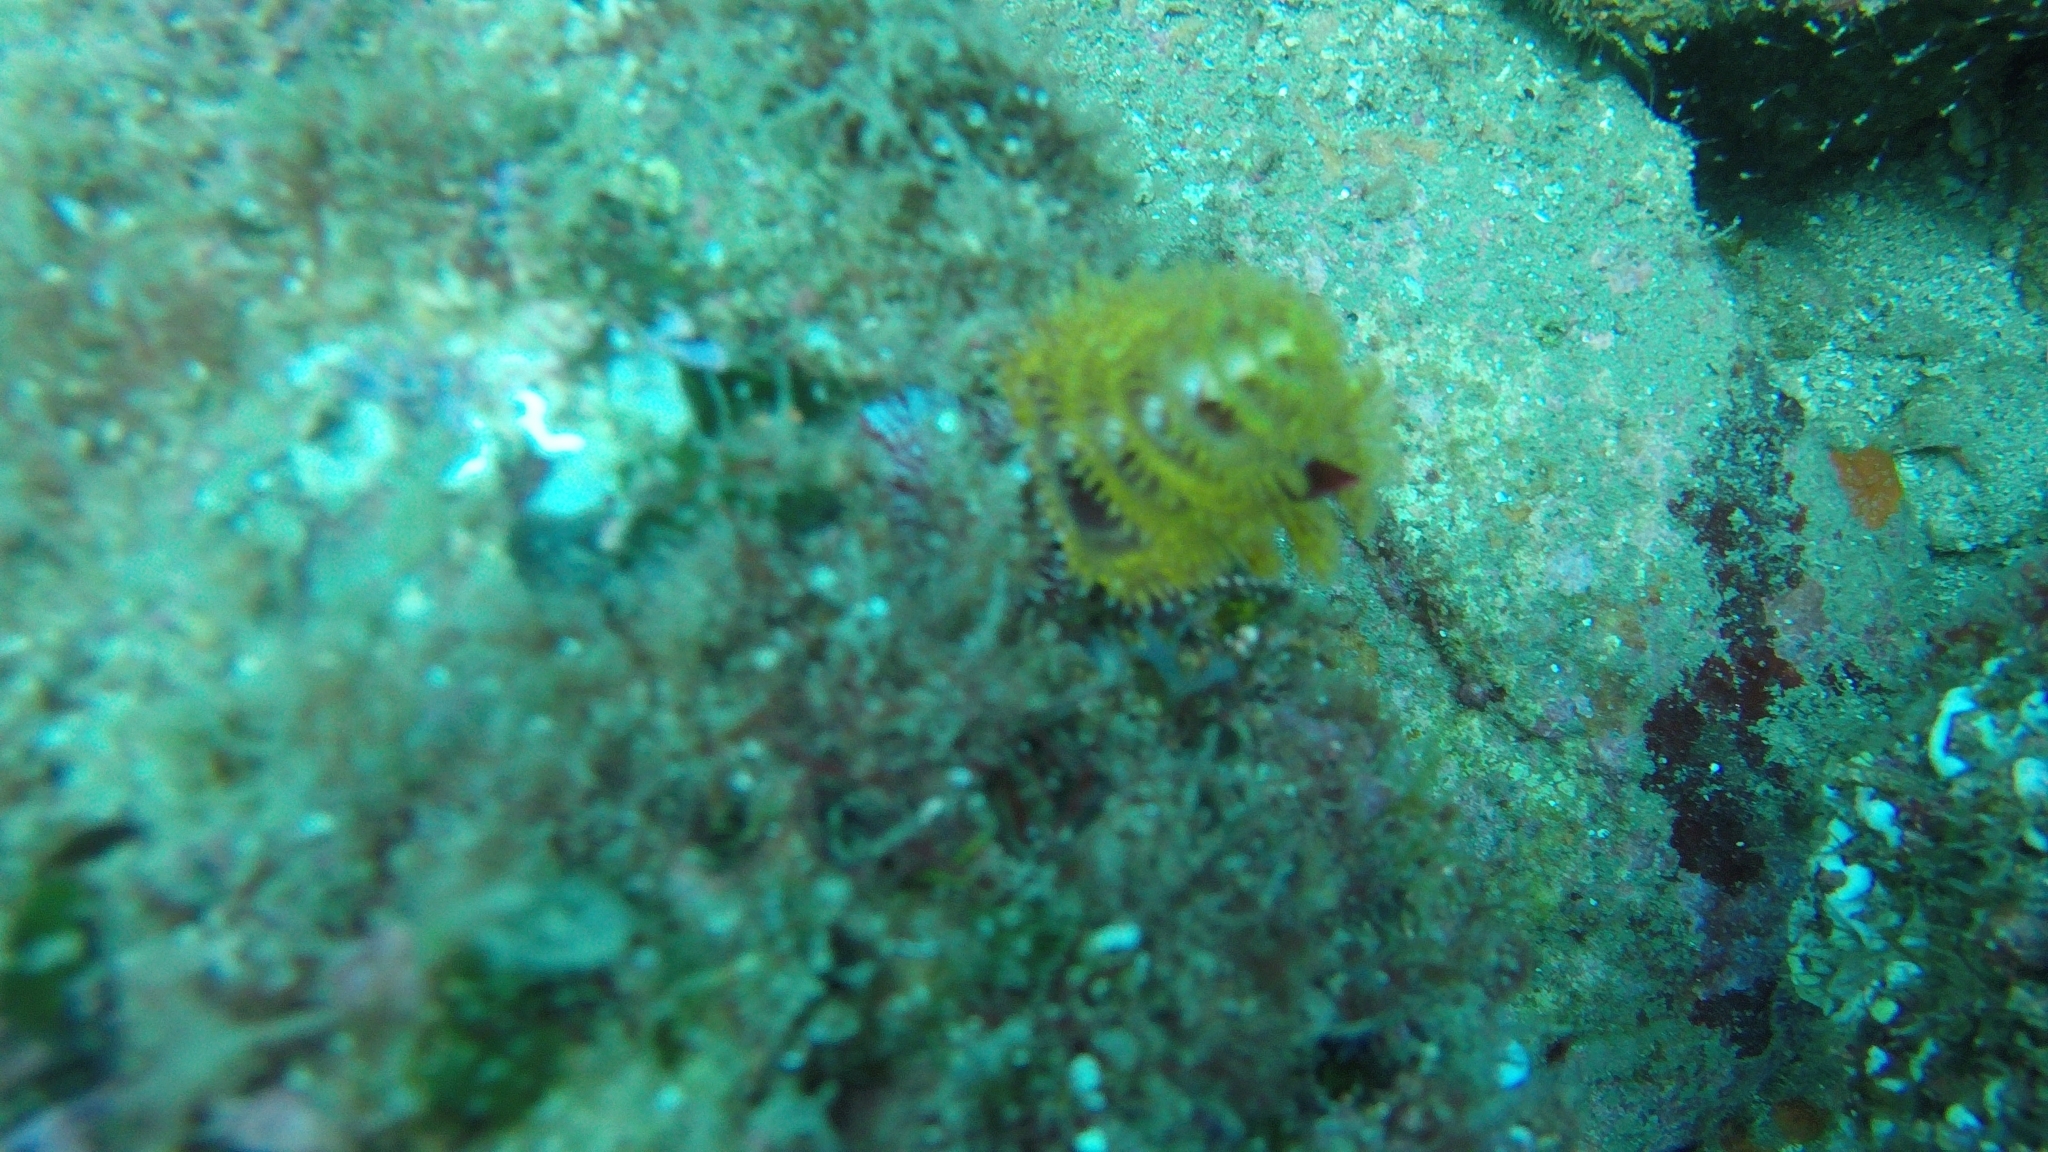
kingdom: Animalia
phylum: Annelida
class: Polychaeta
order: Sabellida
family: Serpulidae
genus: Spirobranchus
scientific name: Spirobranchus incrassatus
